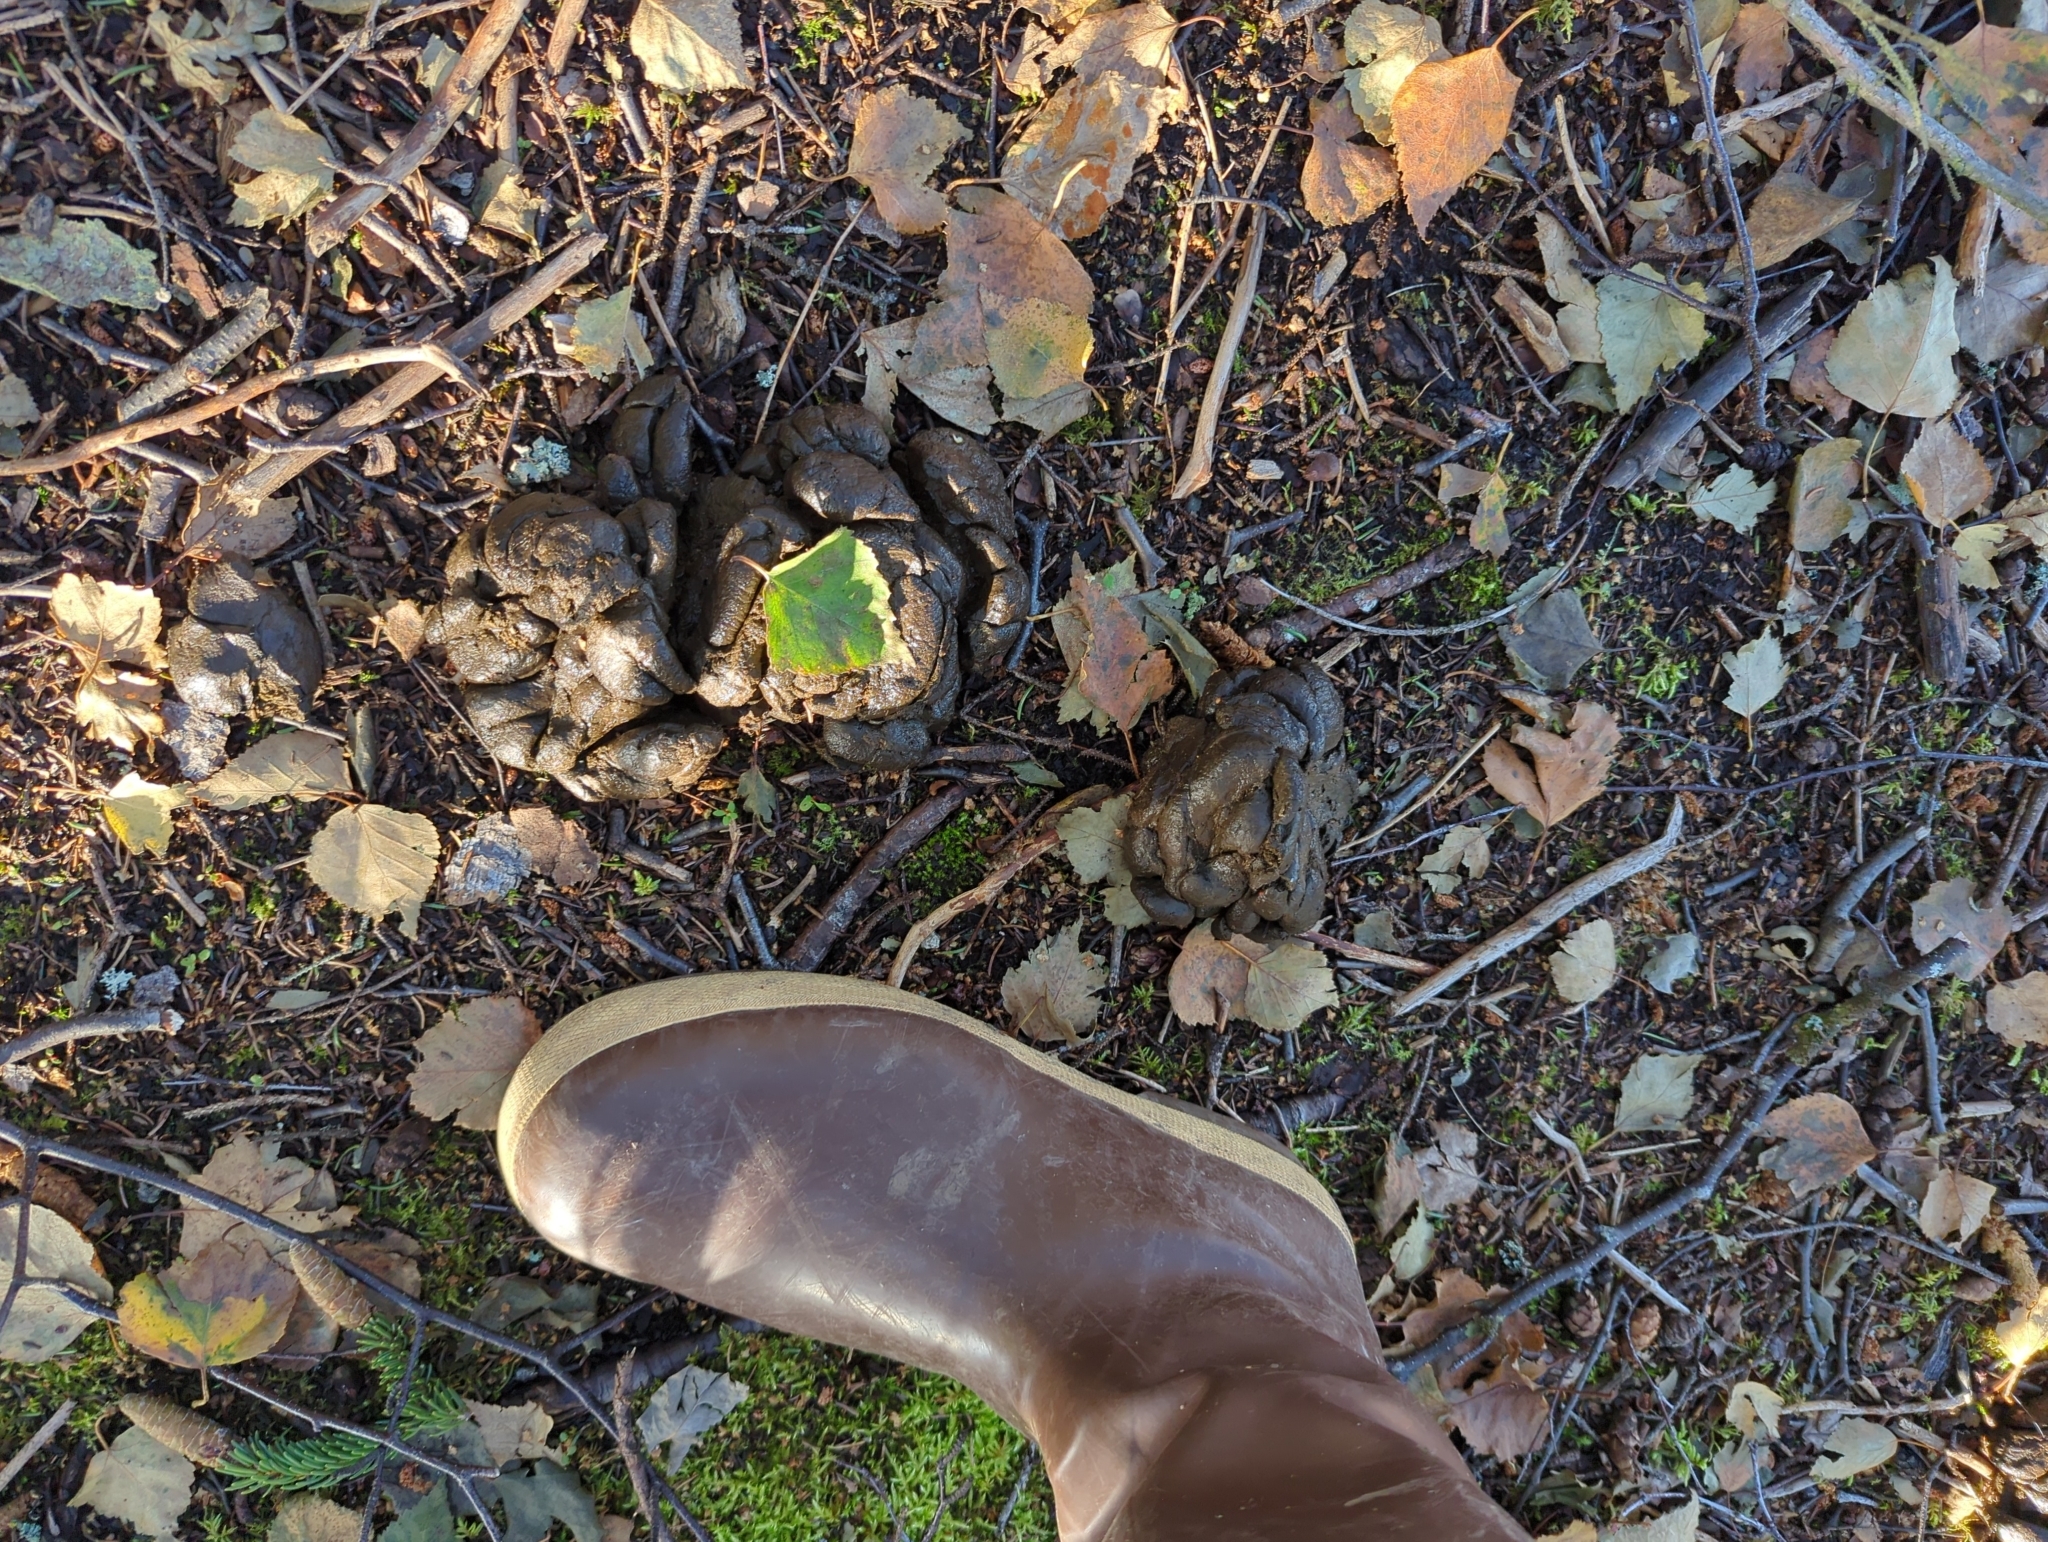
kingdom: Animalia
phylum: Chordata
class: Mammalia
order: Artiodactyla
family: Cervidae
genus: Alces
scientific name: Alces alces
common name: Moose
